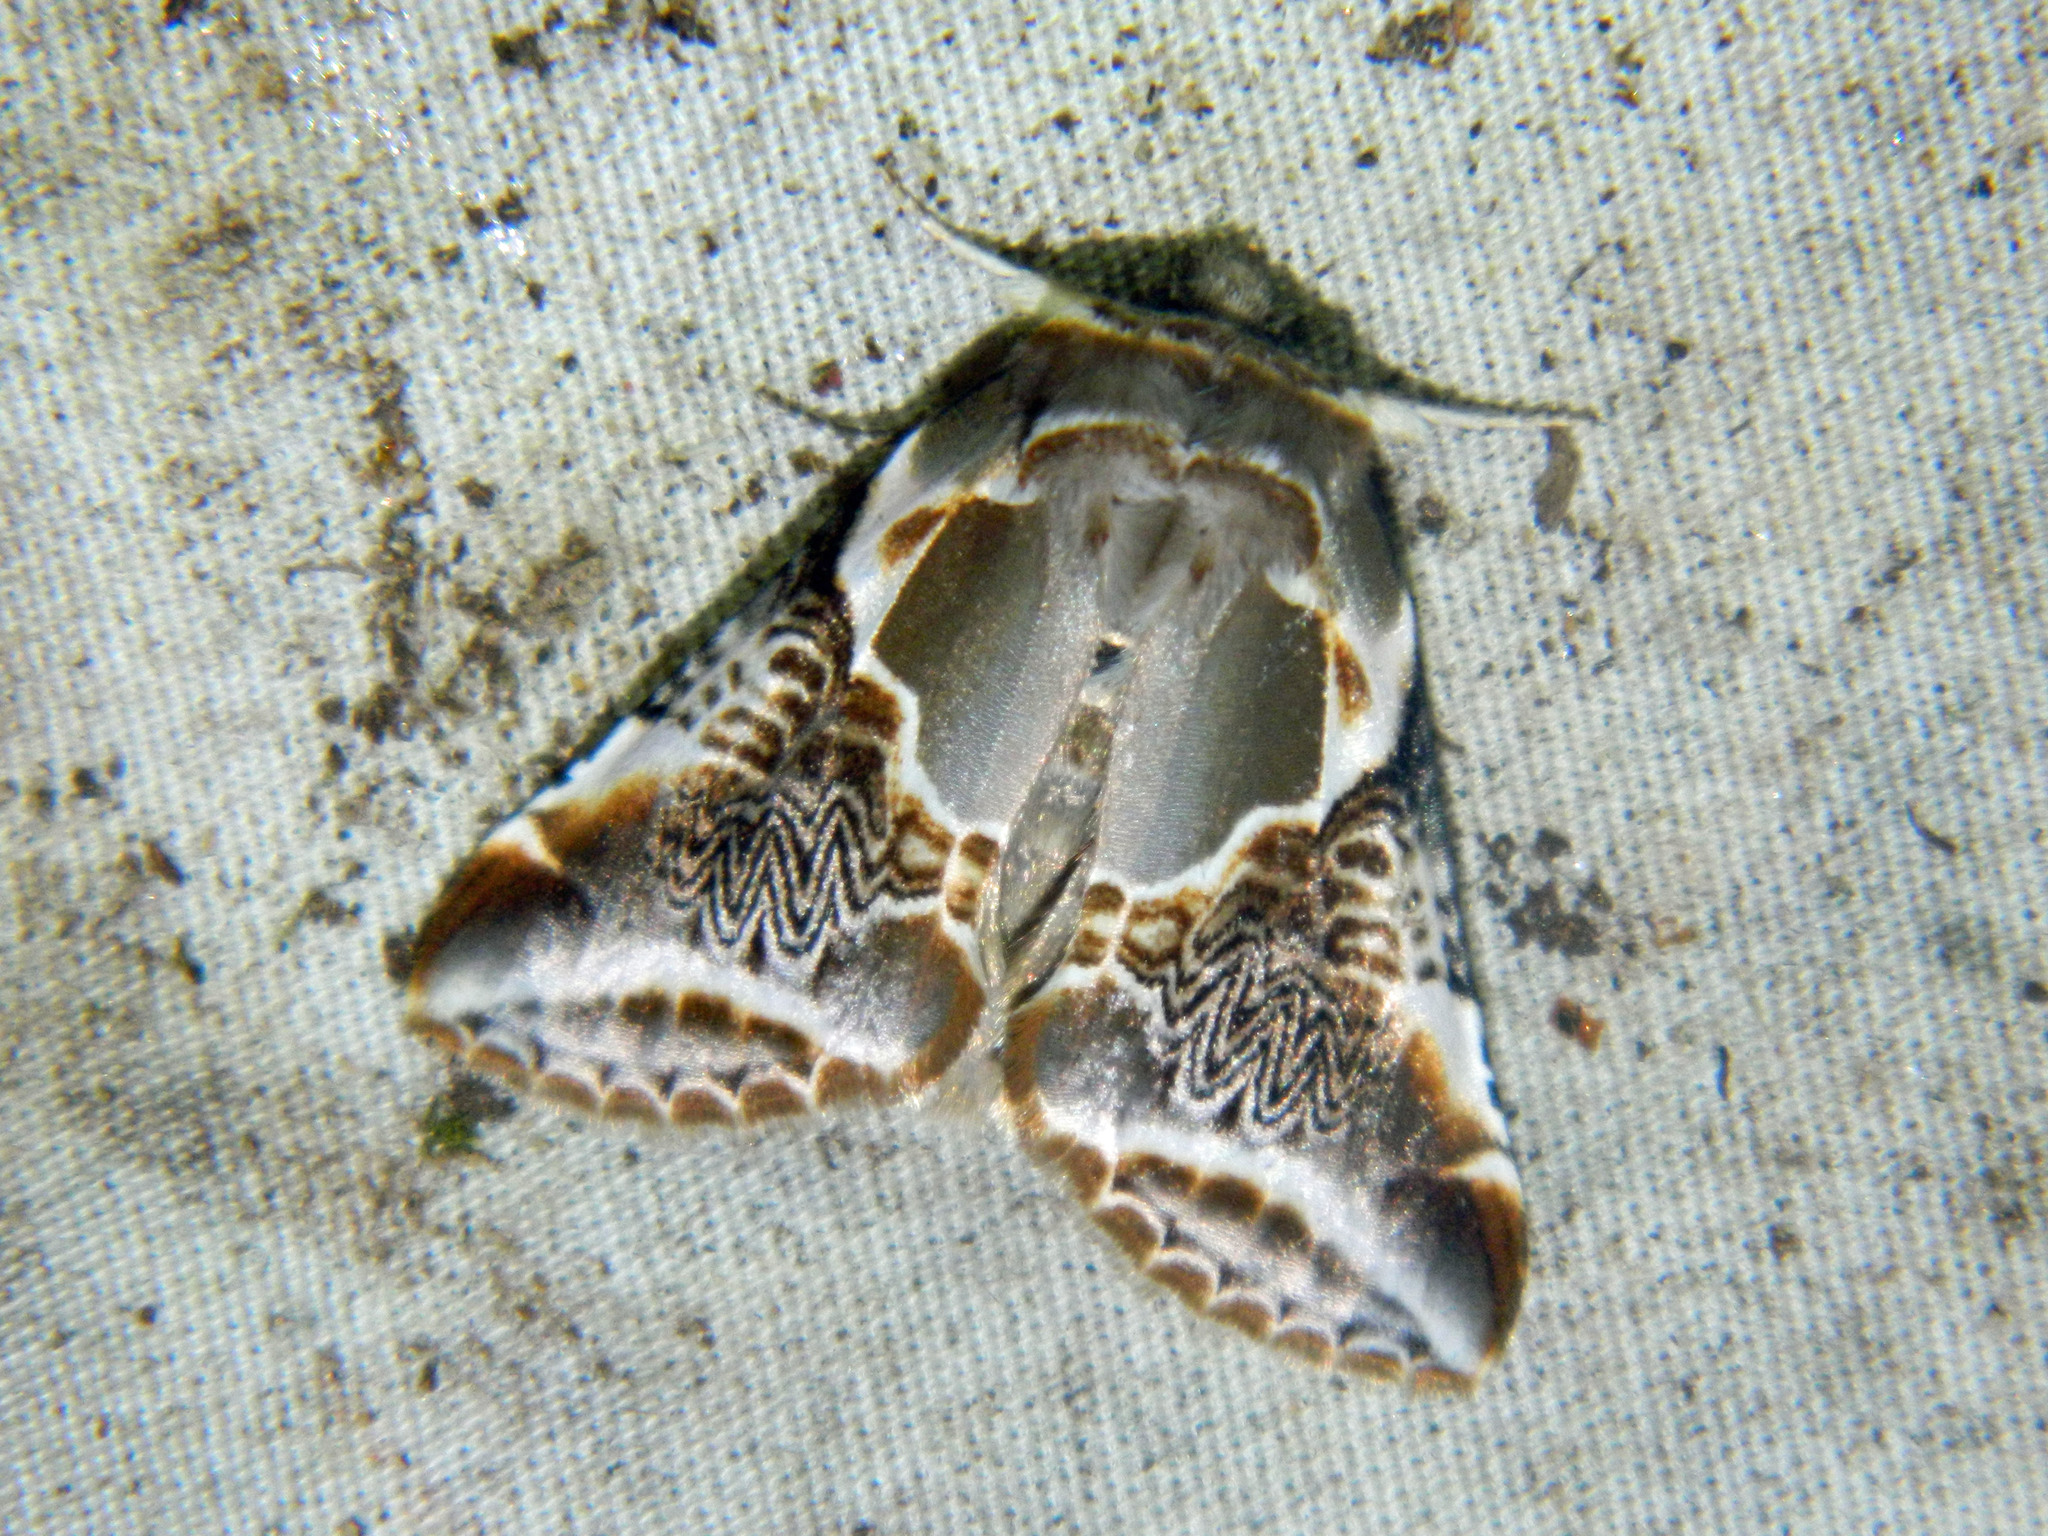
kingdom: Animalia
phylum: Arthropoda
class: Insecta
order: Lepidoptera
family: Drepanidae
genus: Habrosyne
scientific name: Habrosyne scripta
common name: Lettered habrosyne moth
